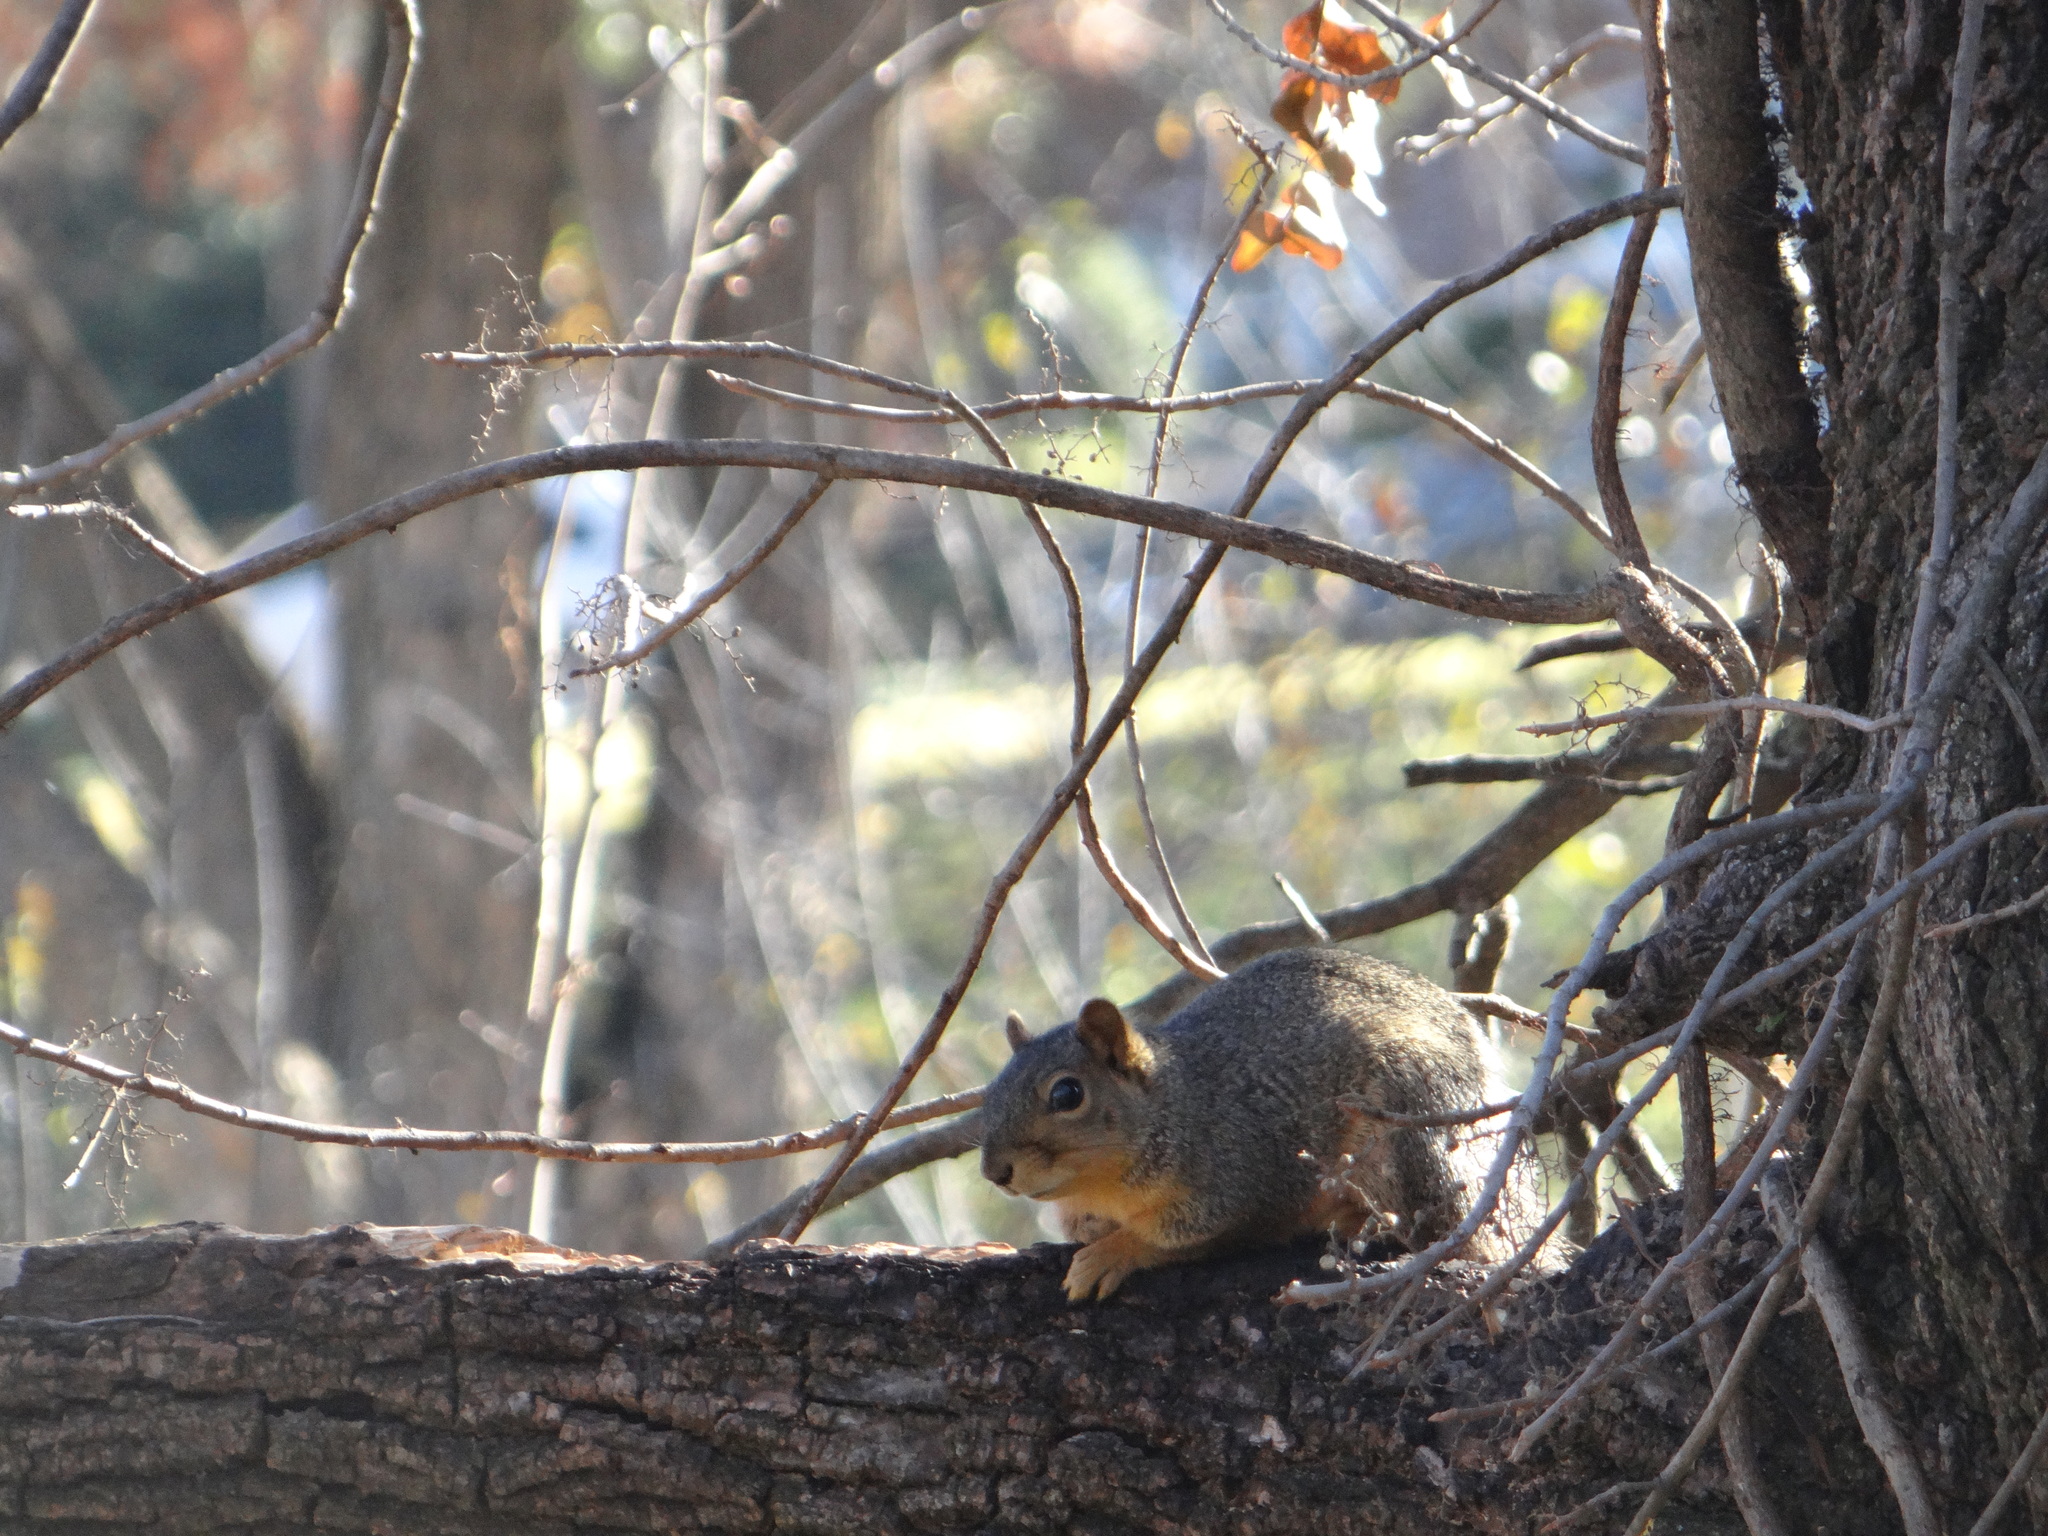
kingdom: Animalia
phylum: Chordata
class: Mammalia
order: Rodentia
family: Sciuridae
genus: Sciurus
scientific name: Sciurus niger
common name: Fox squirrel
